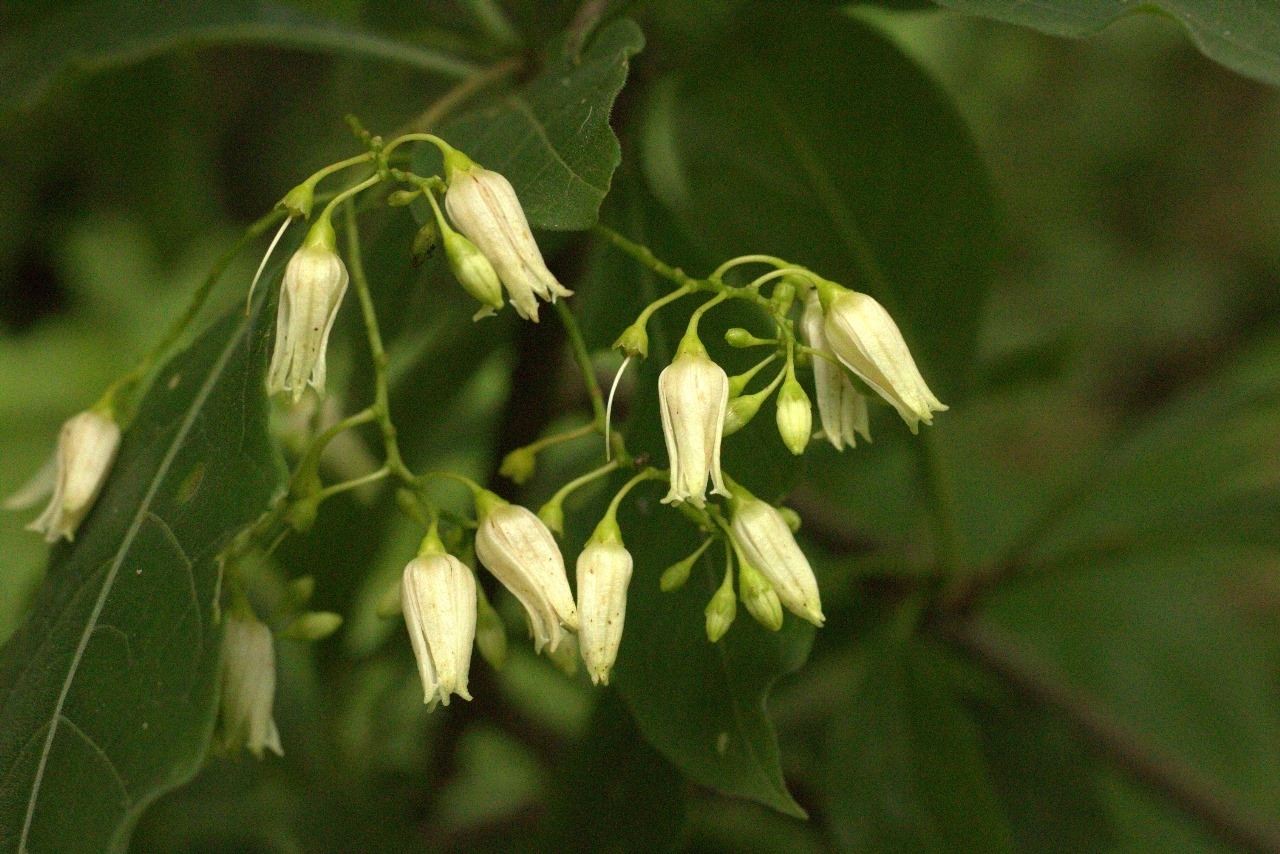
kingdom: Plantae
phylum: Tracheophyta
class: Magnoliopsida
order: Gentianales
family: Rubiaceae
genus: Chiococca
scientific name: Chiococca alba
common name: Snowberry
